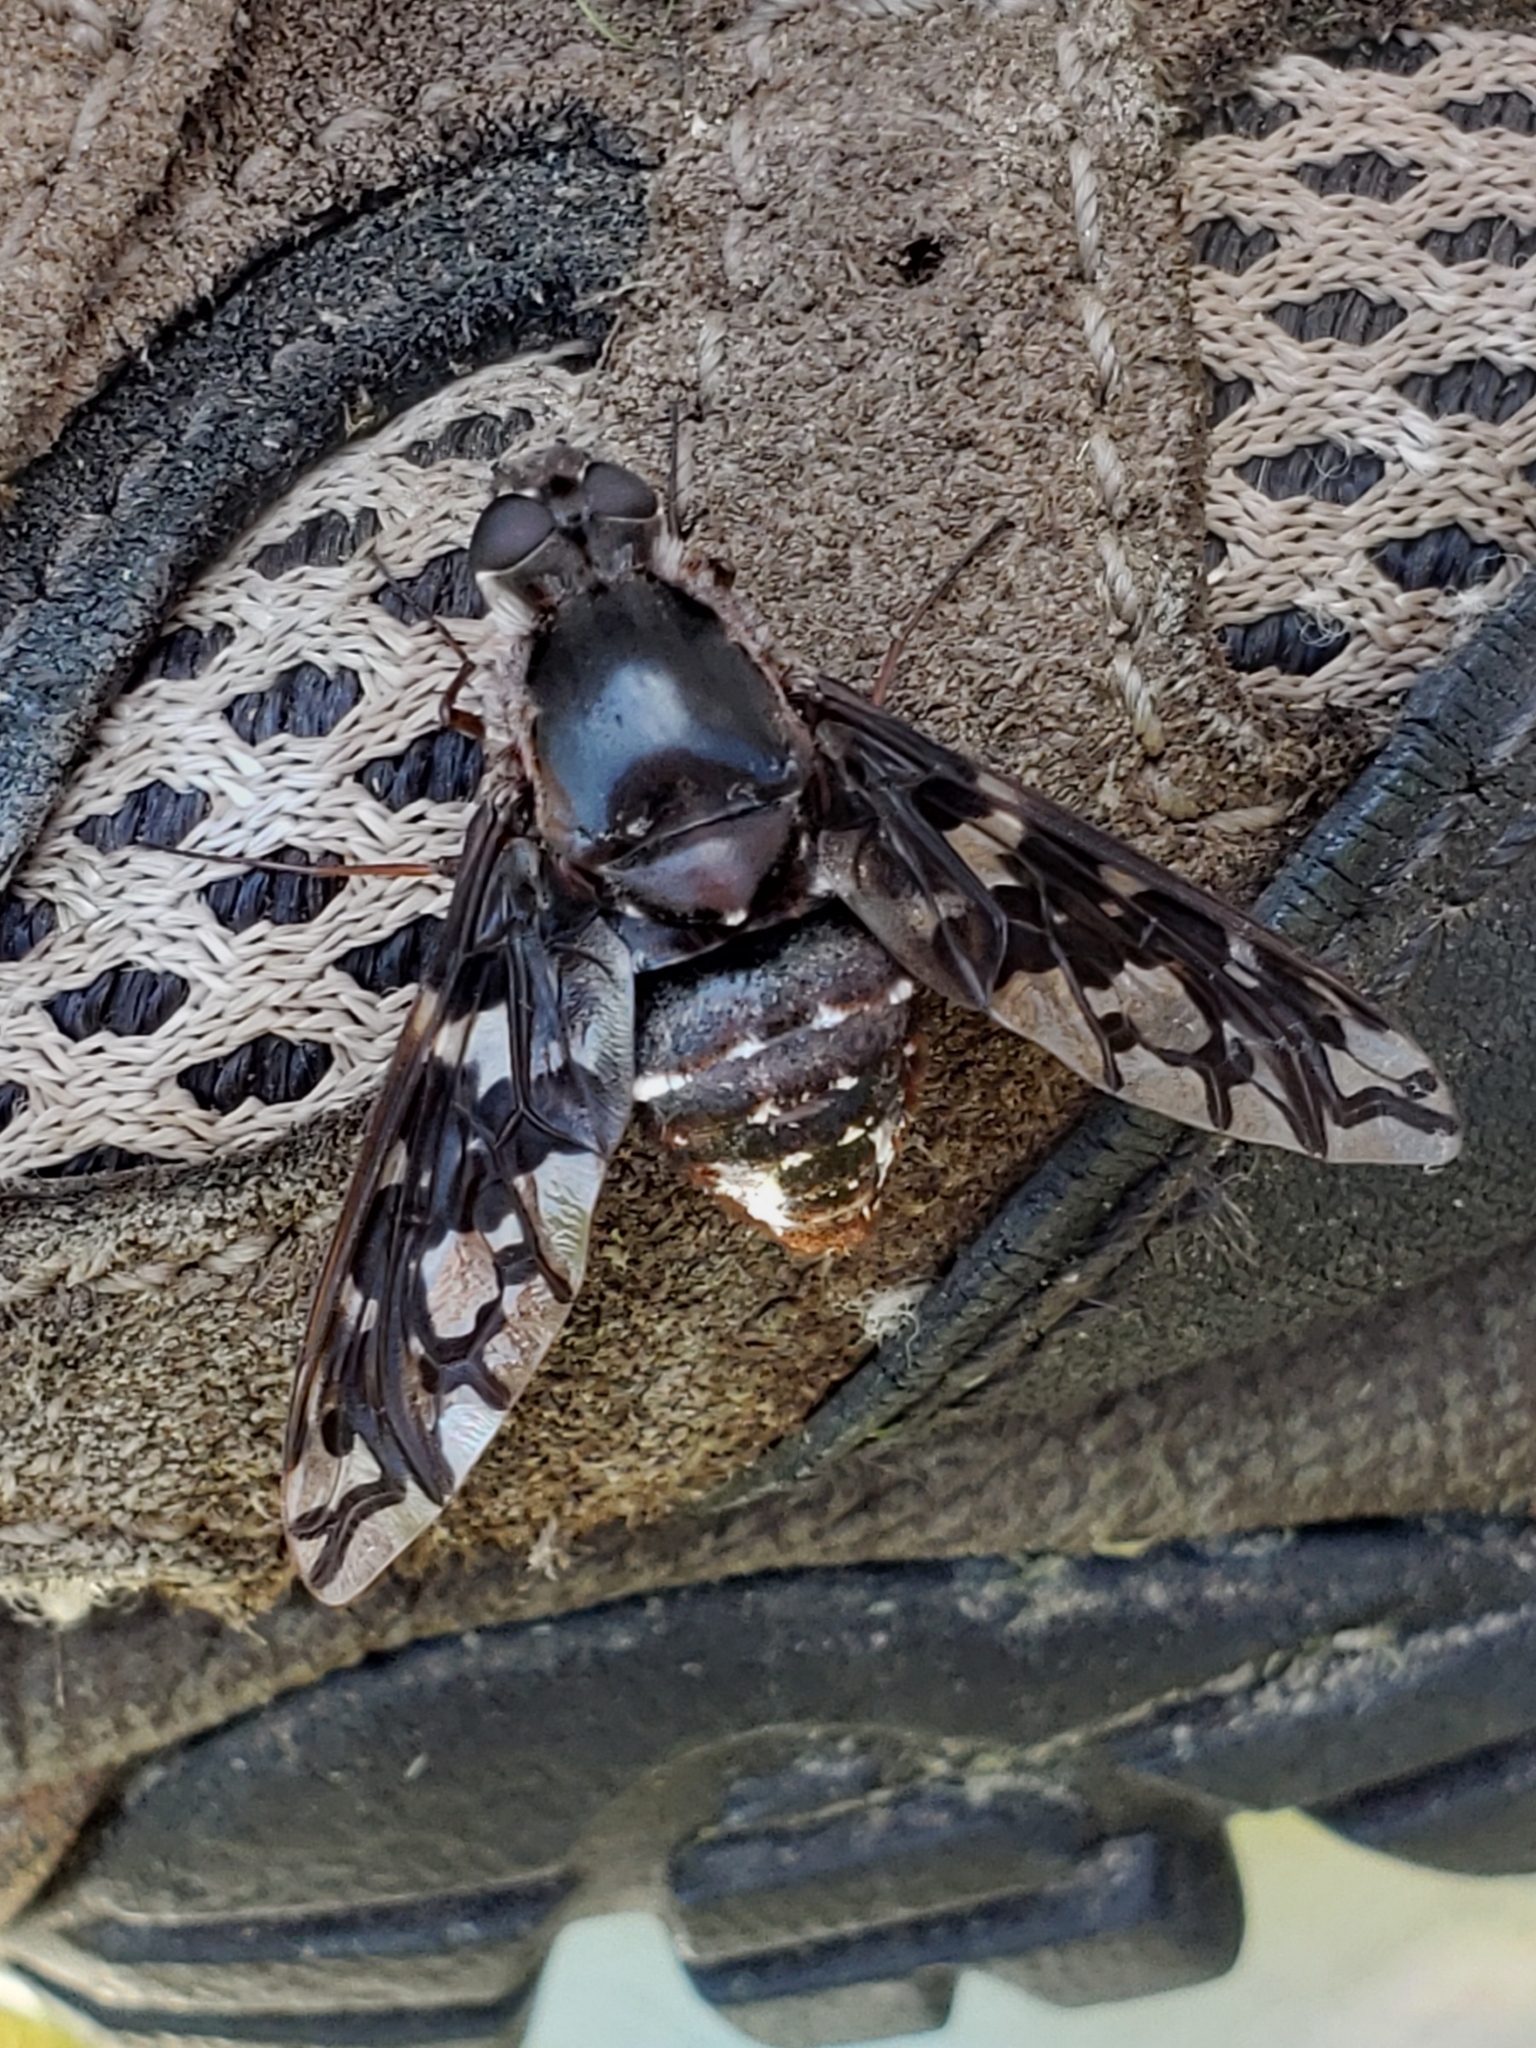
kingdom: Animalia
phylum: Arthropoda
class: Insecta
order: Diptera
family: Bombyliidae
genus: Xenox
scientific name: Xenox tigrinus
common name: Tiger bee fly
